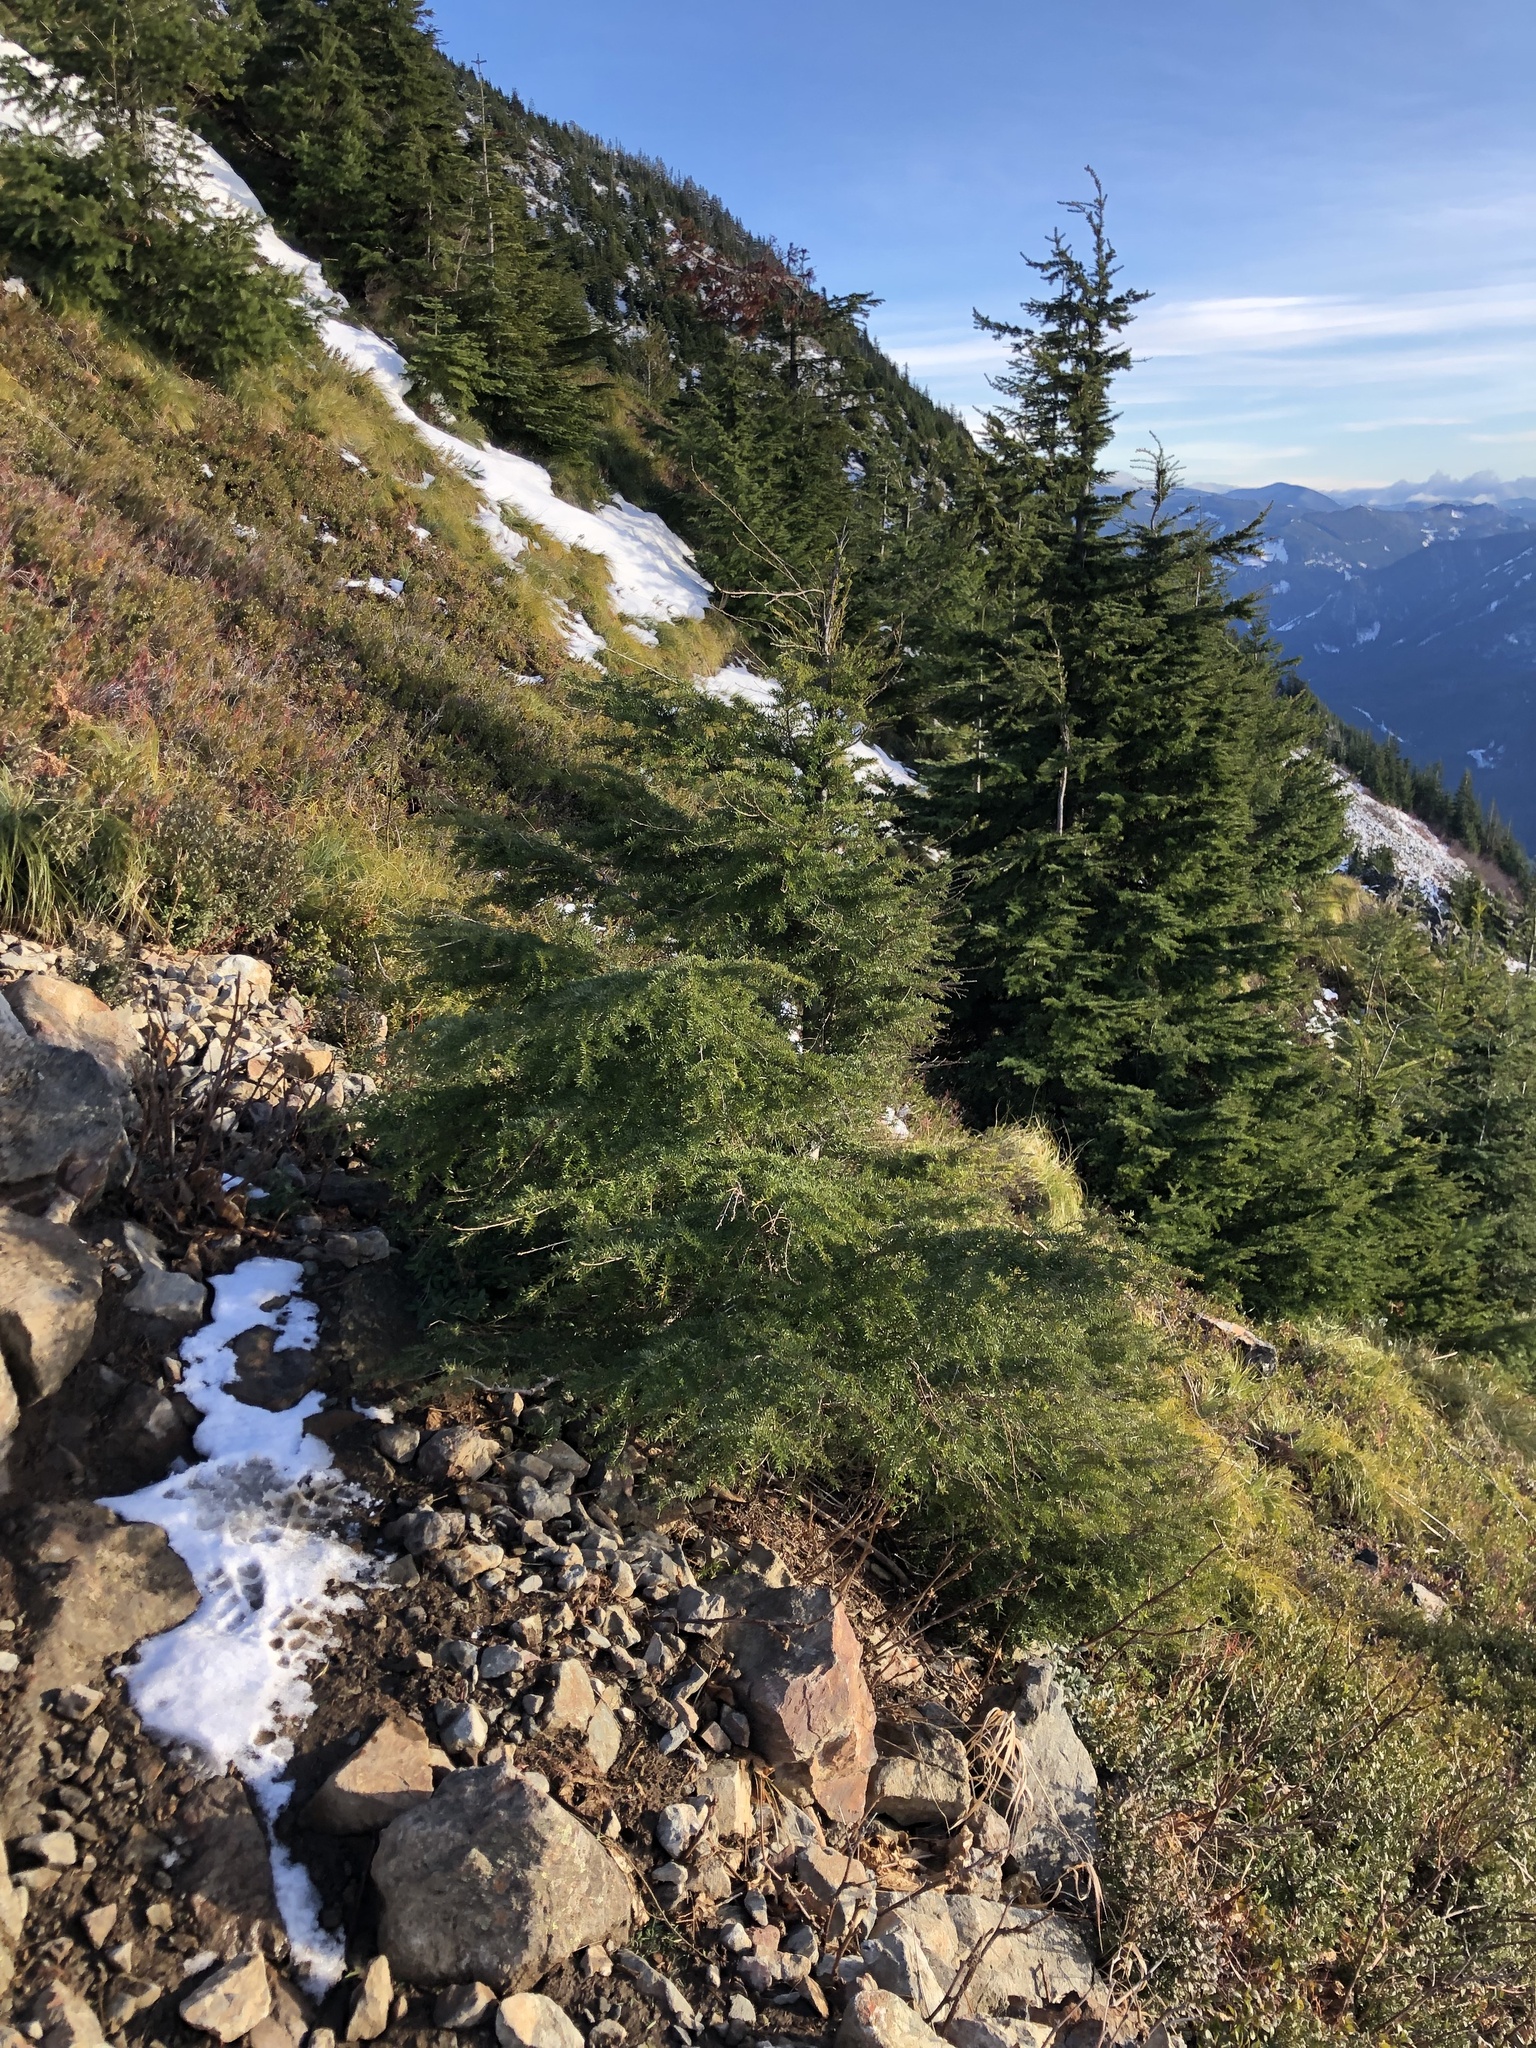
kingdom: Plantae
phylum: Tracheophyta
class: Pinopsida
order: Pinales
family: Pinaceae
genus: Tsuga
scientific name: Tsuga heterophylla
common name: Western hemlock
